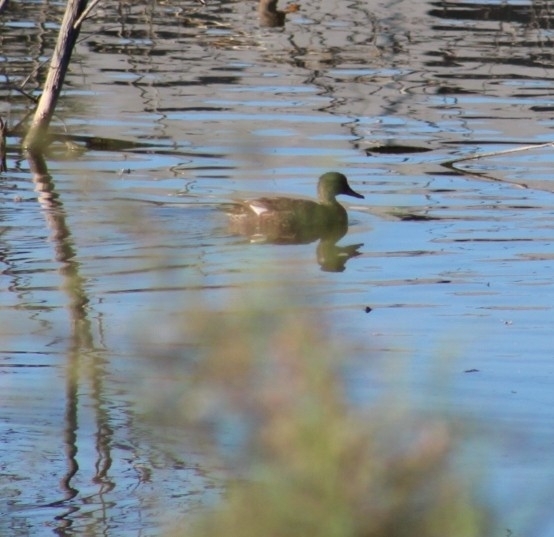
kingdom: Animalia
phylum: Chordata
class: Aves
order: Anseriformes
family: Anatidae
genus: Mareca
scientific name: Mareca strepera
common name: Gadwall
